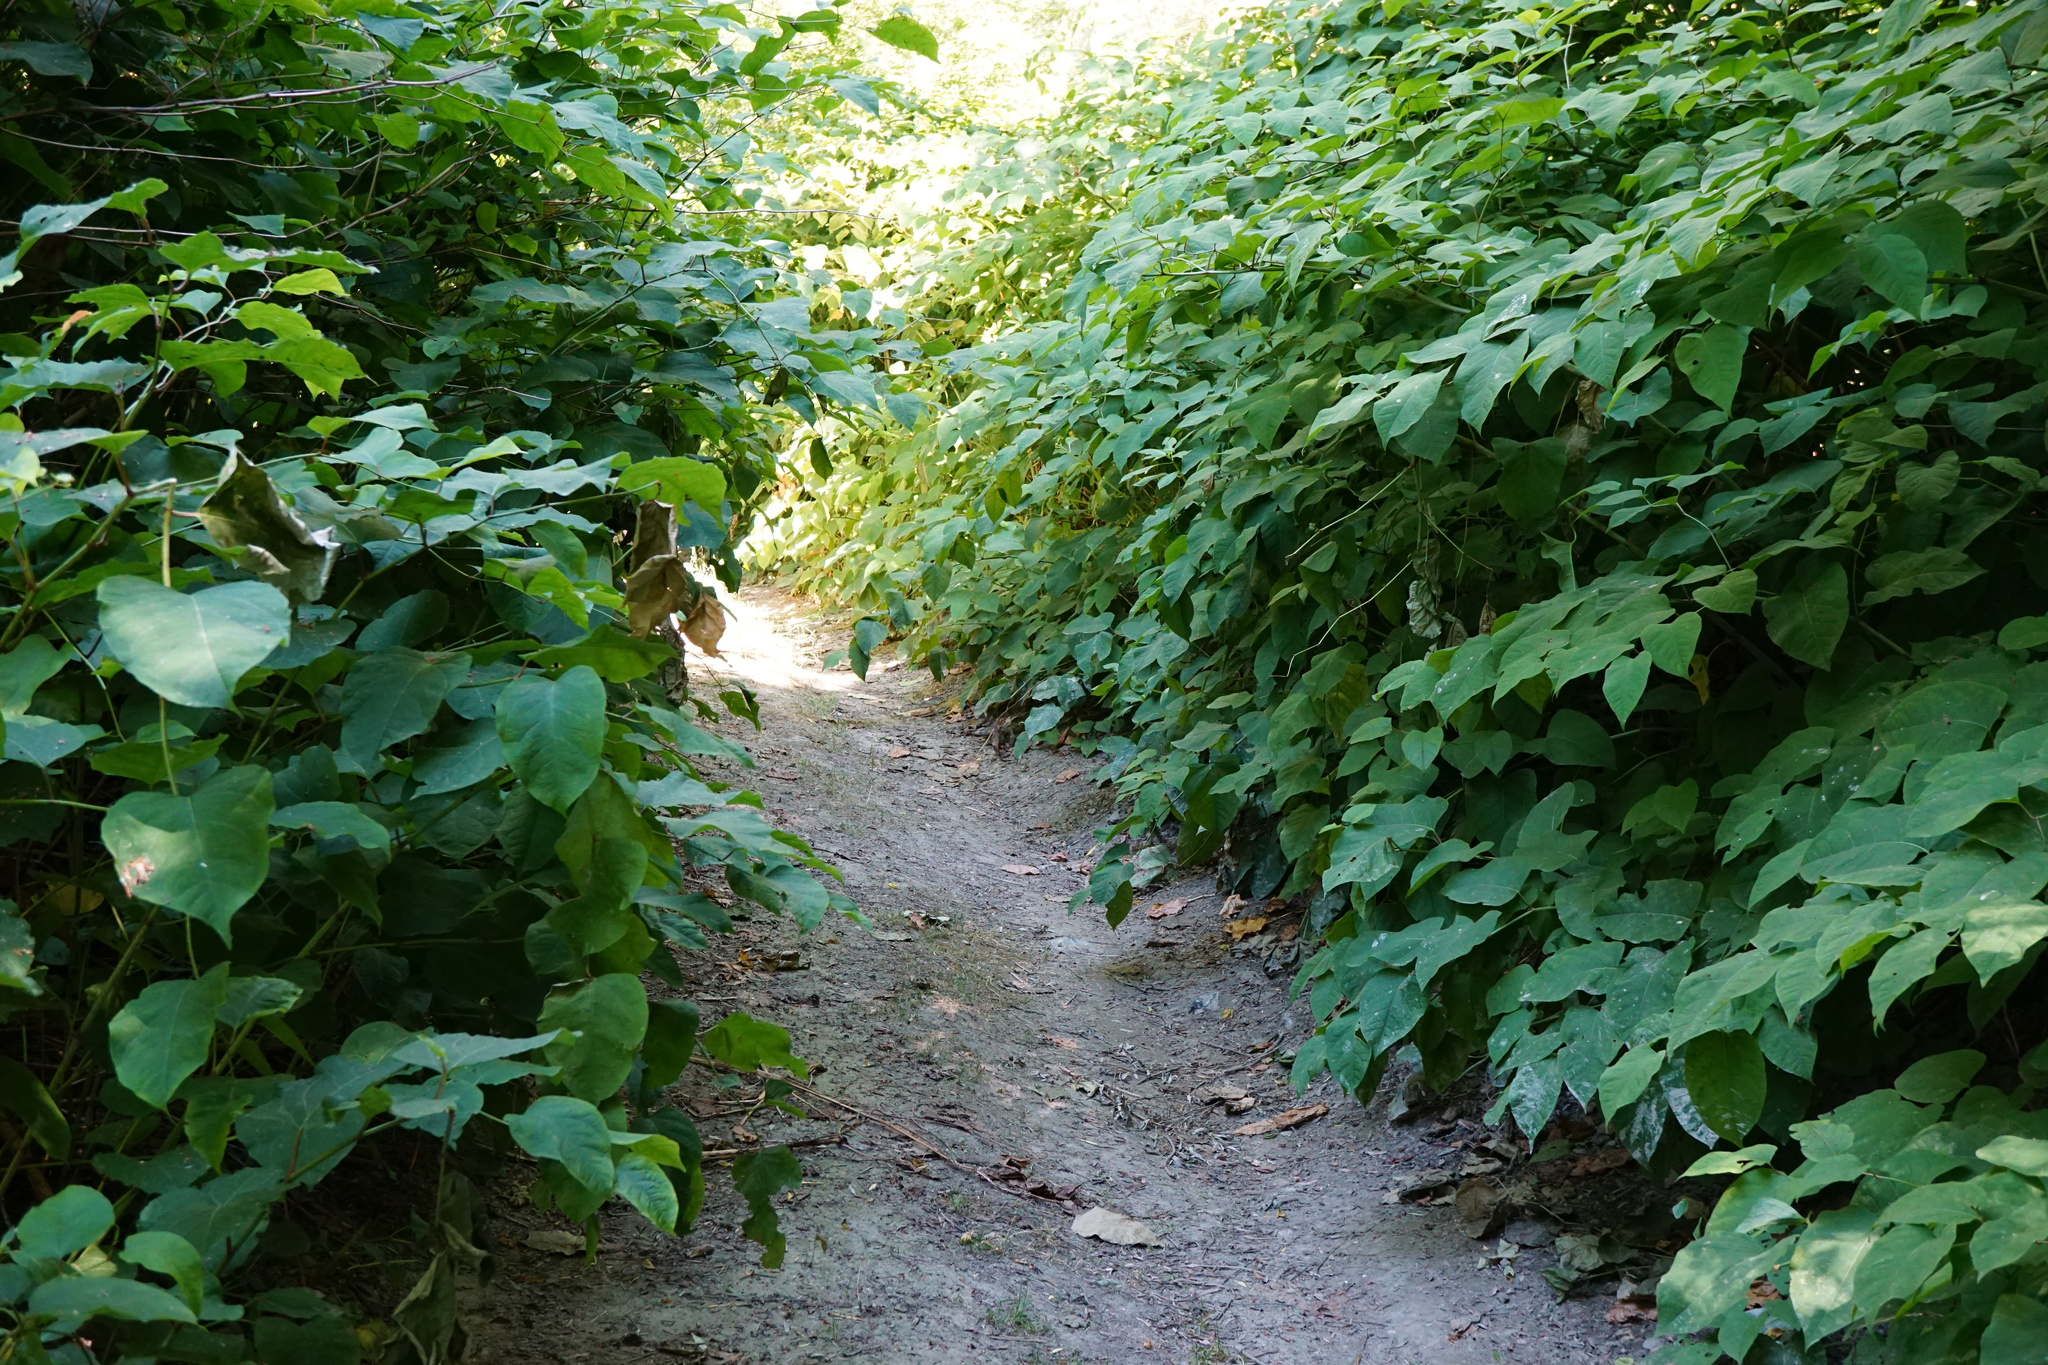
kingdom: Plantae
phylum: Tracheophyta
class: Magnoliopsida
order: Caryophyllales
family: Polygonaceae
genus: Reynoutria
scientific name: Reynoutria bohemica
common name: Bohemian knotweed
